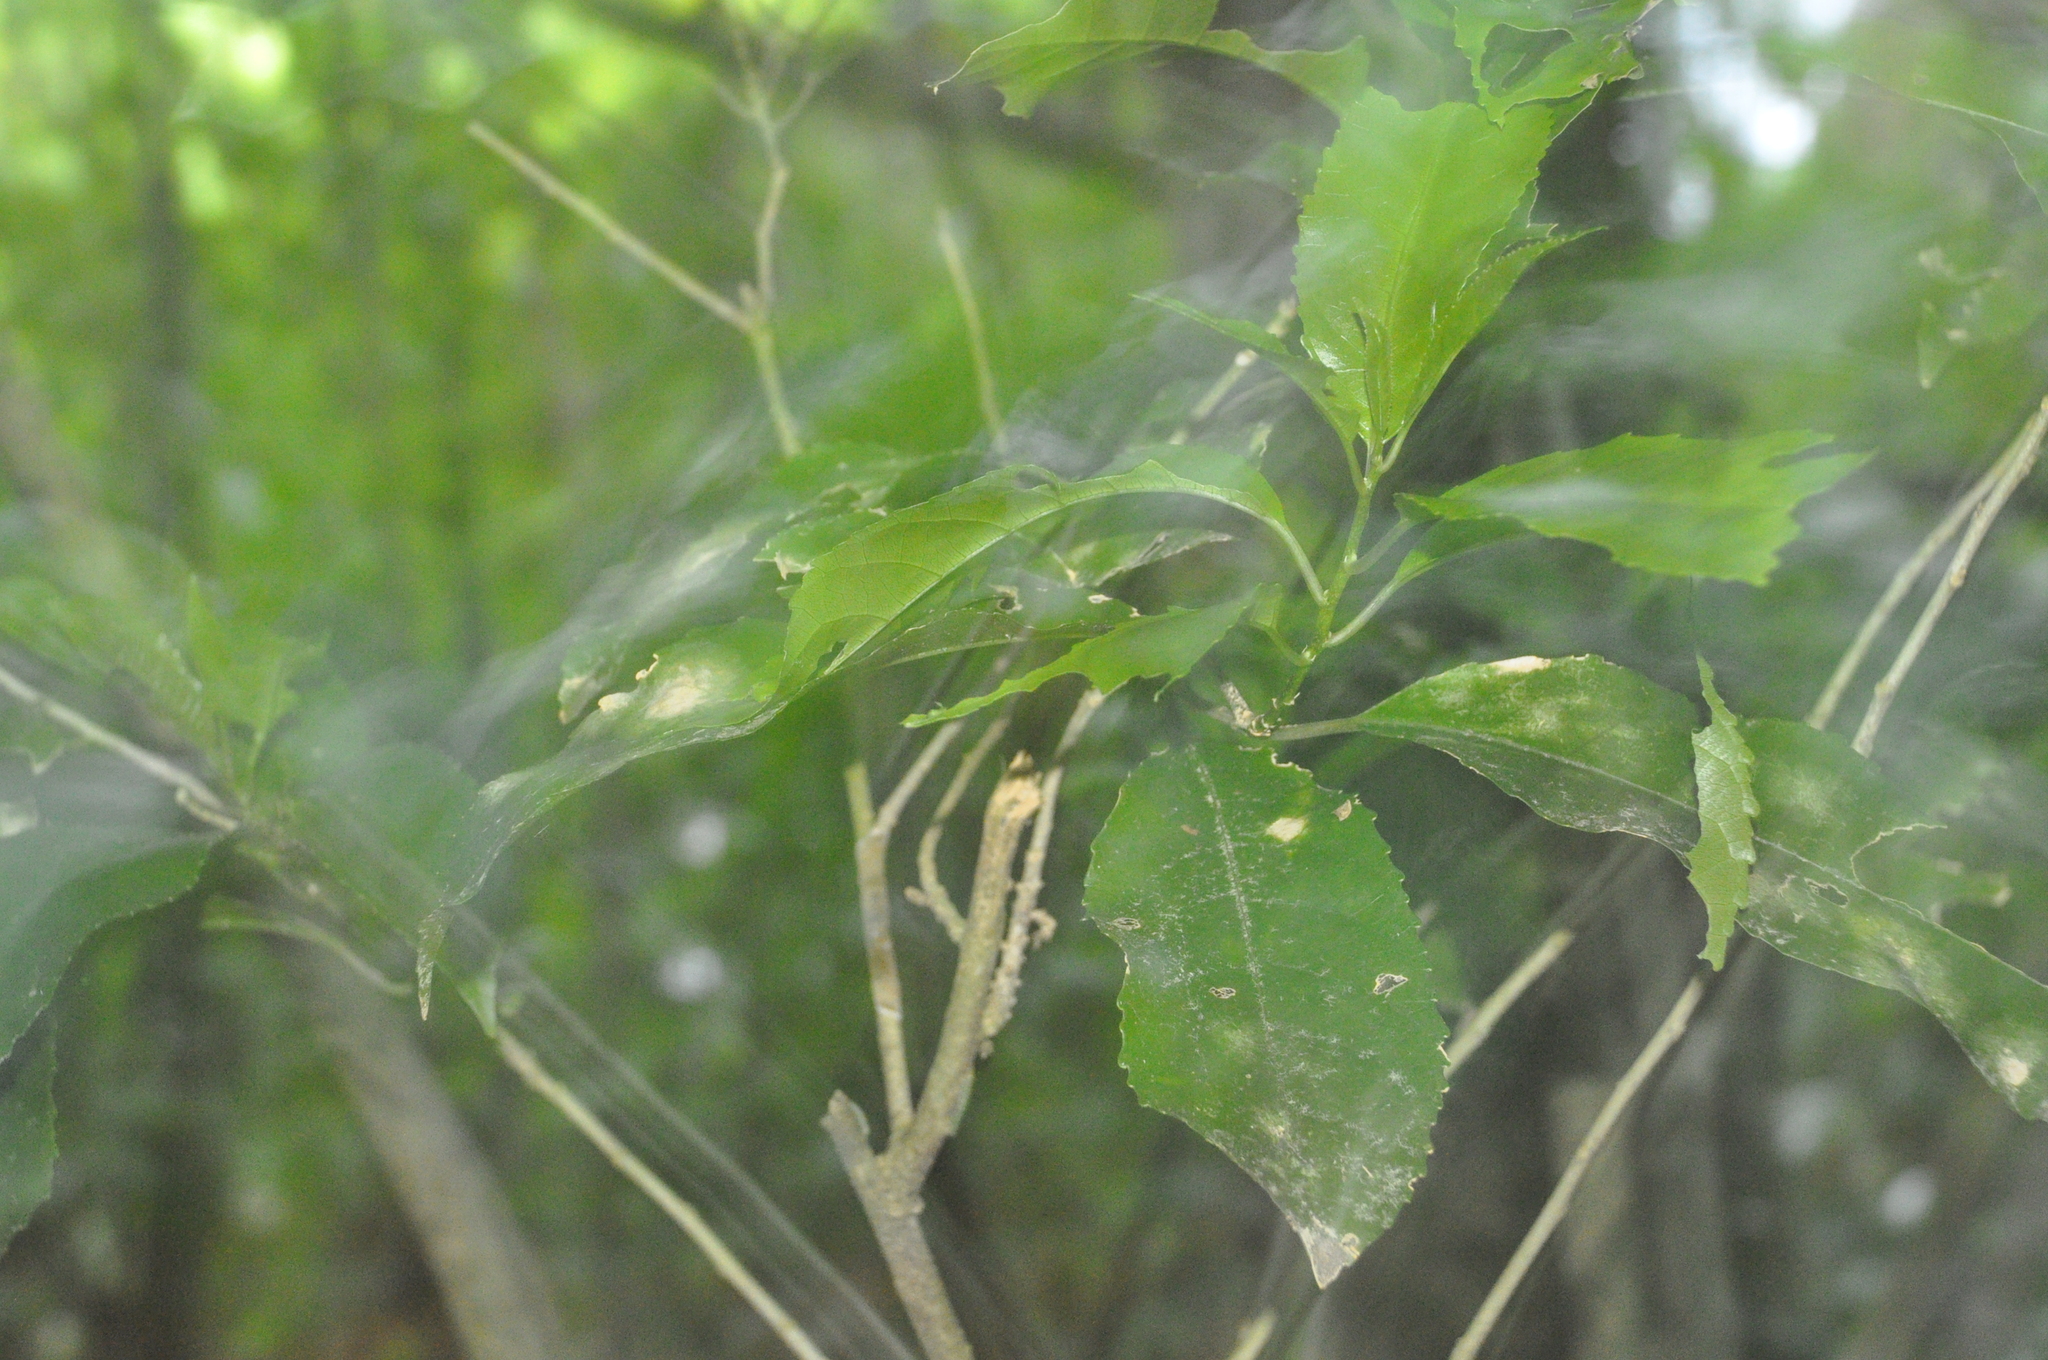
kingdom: Plantae
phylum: Tracheophyta
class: Magnoliopsida
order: Malpighiales
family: Violaceae
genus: Melicytus
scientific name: Melicytus ramiflorus
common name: Mahoe
